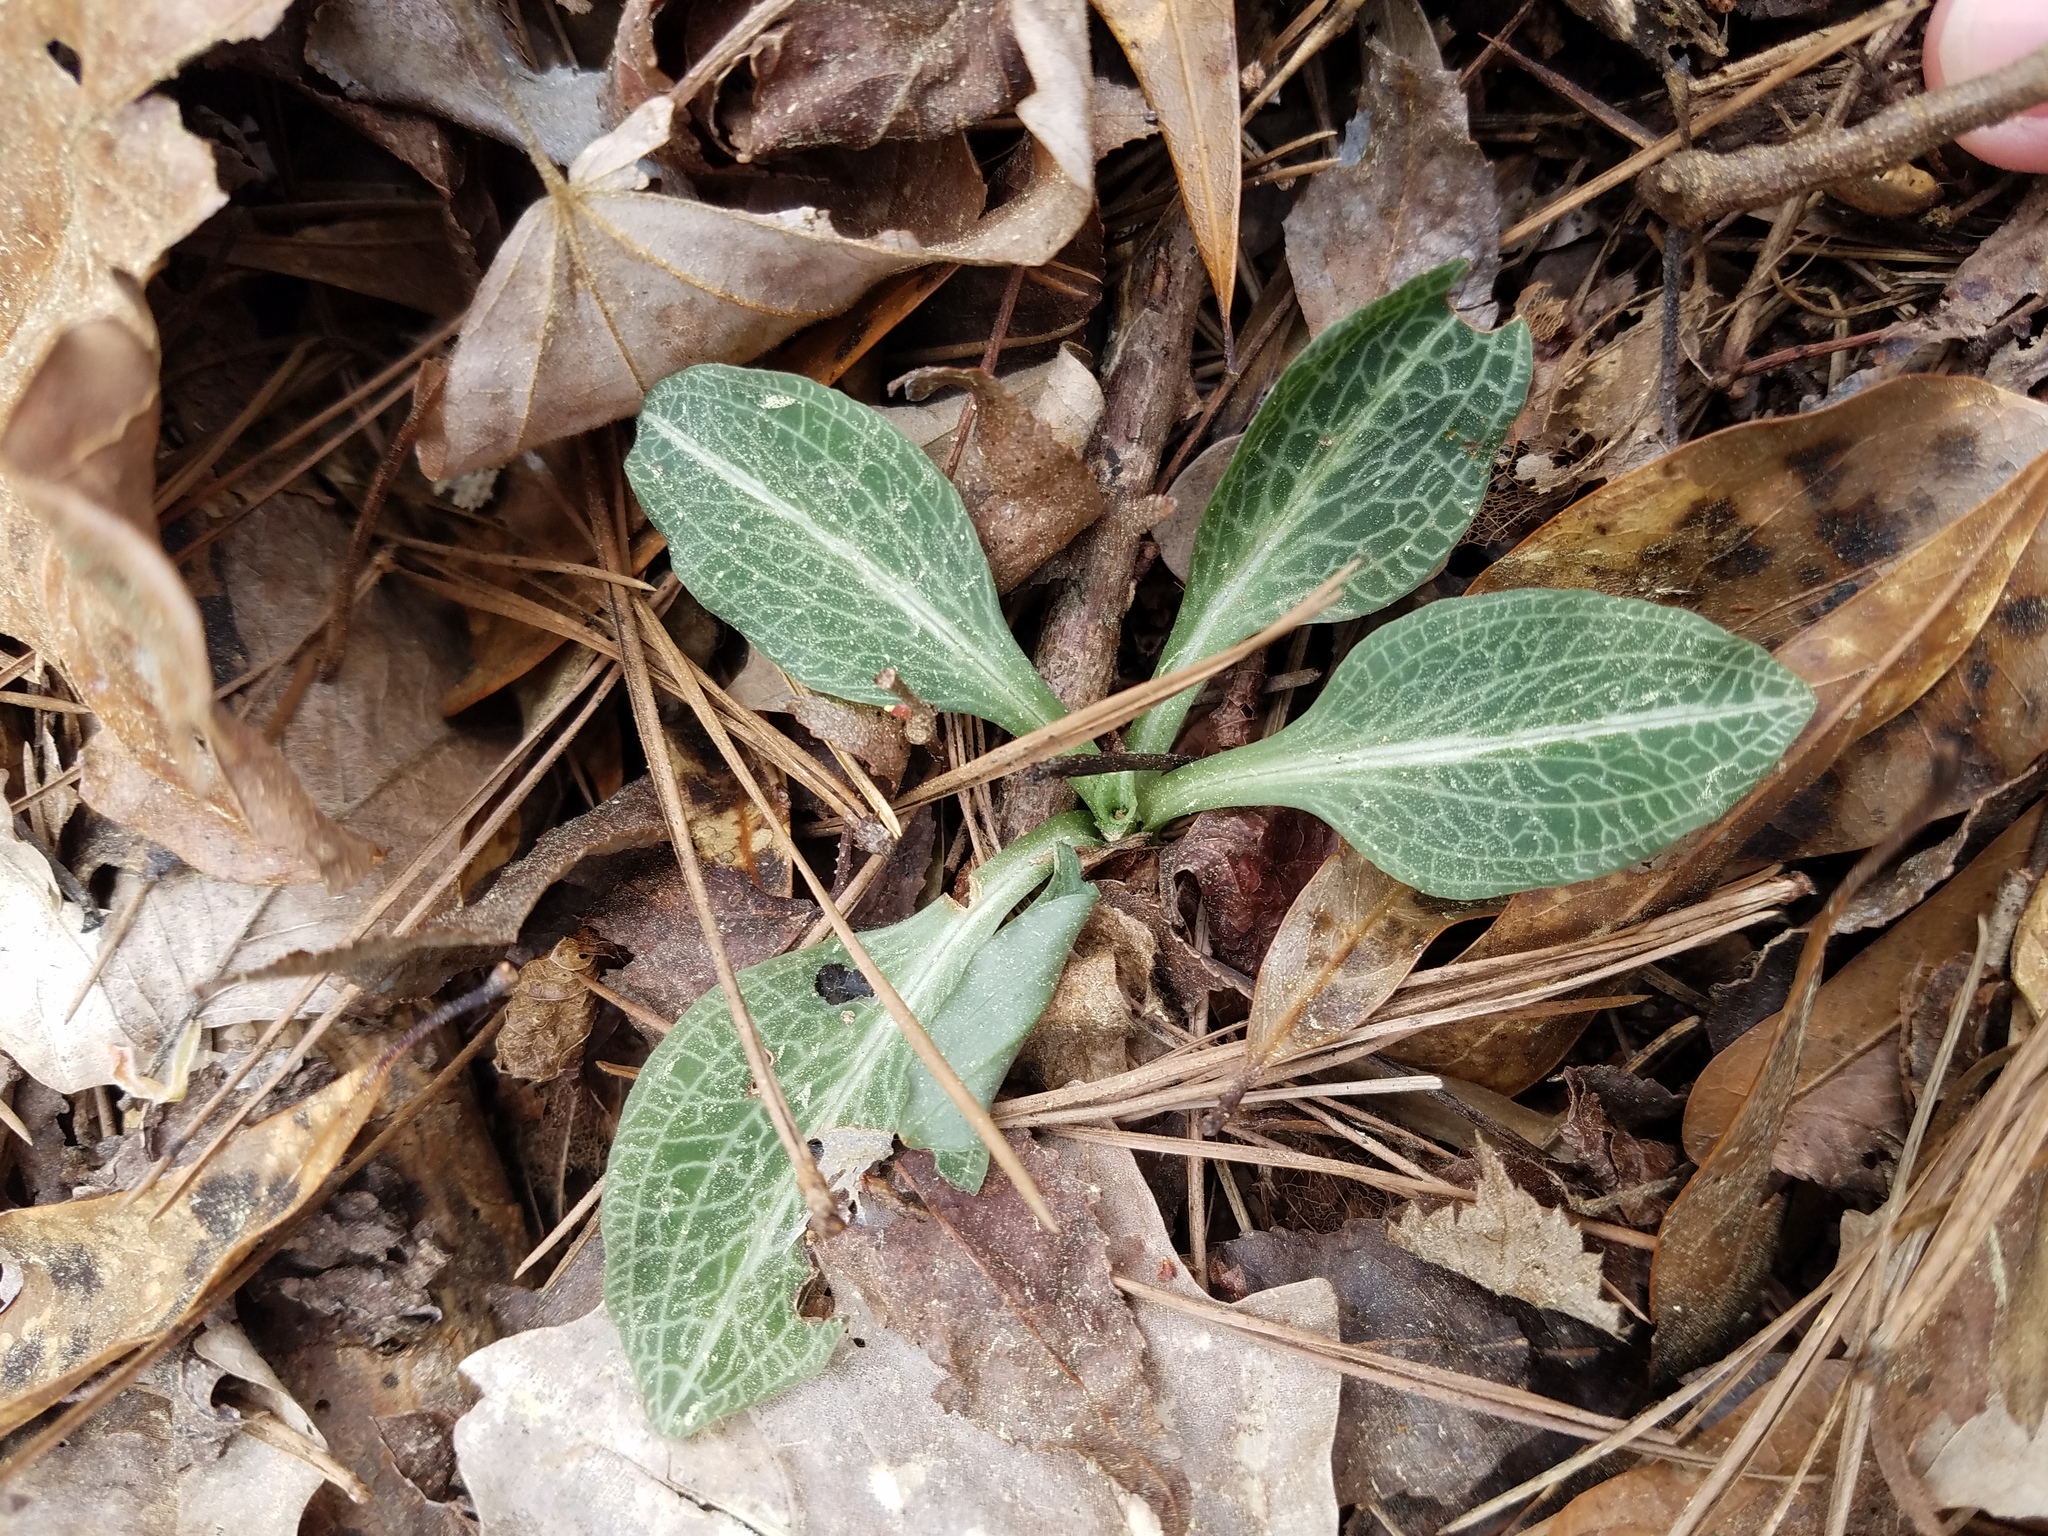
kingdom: Plantae
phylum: Tracheophyta
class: Liliopsida
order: Asparagales
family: Orchidaceae
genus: Goodyera
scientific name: Goodyera pubescens
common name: Downy rattlesnake-plantain
